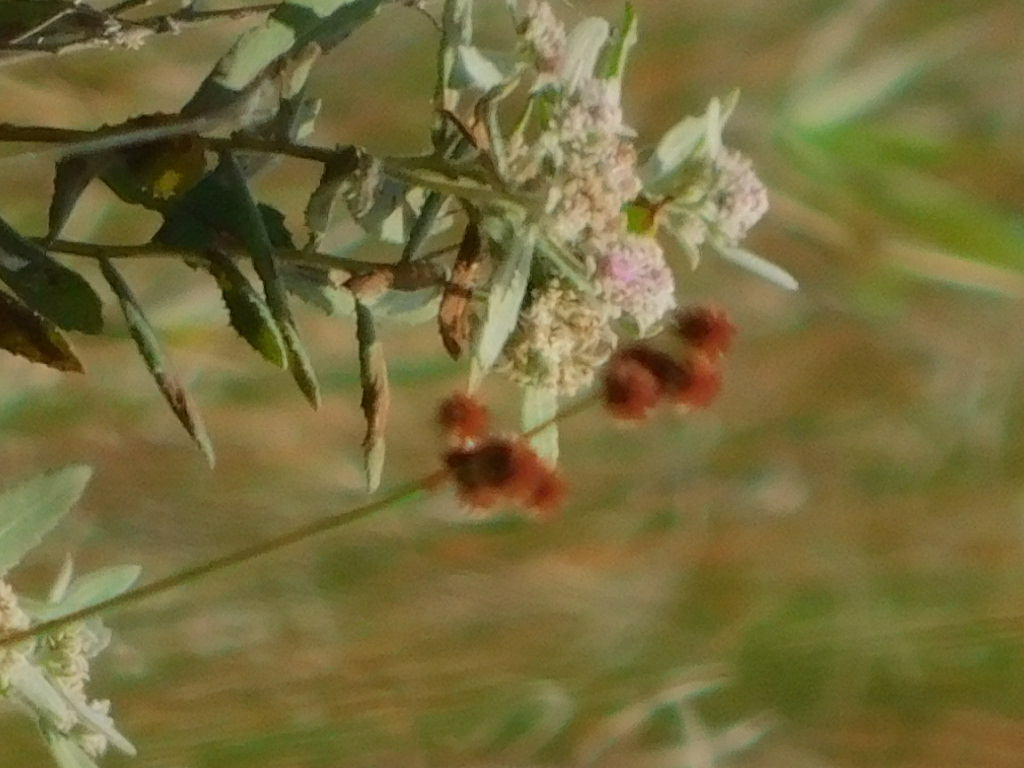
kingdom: Plantae
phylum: Tracheophyta
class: Liliopsida
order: Poales
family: Juncaceae
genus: Juncus
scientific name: Juncus megacephalus
